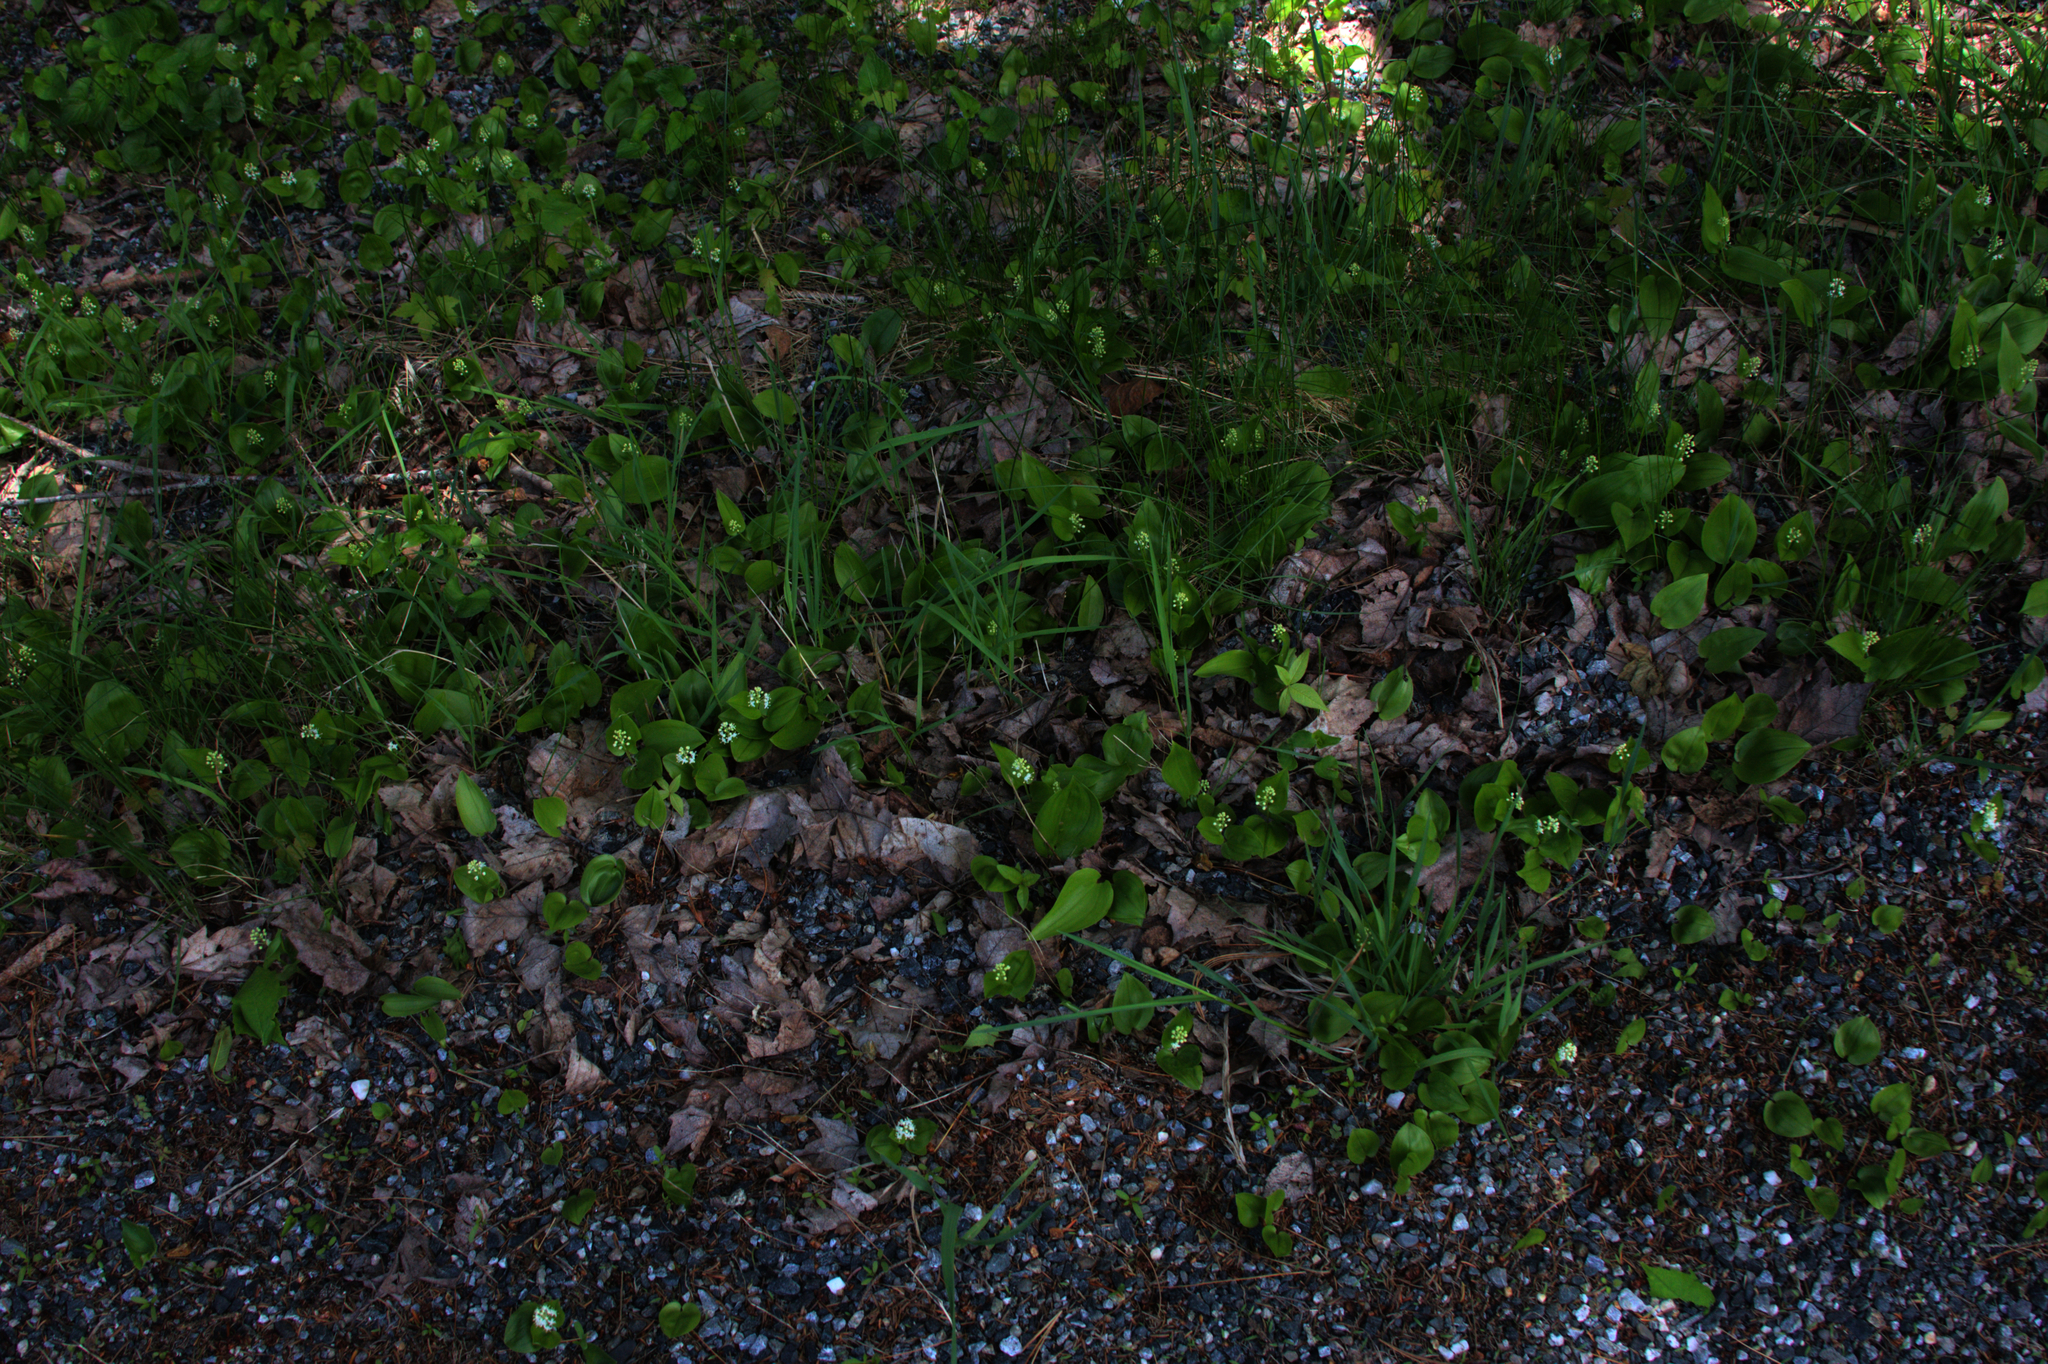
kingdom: Plantae
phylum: Tracheophyta
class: Liliopsida
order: Asparagales
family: Asparagaceae
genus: Maianthemum
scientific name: Maianthemum canadense
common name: False lily-of-the-valley
